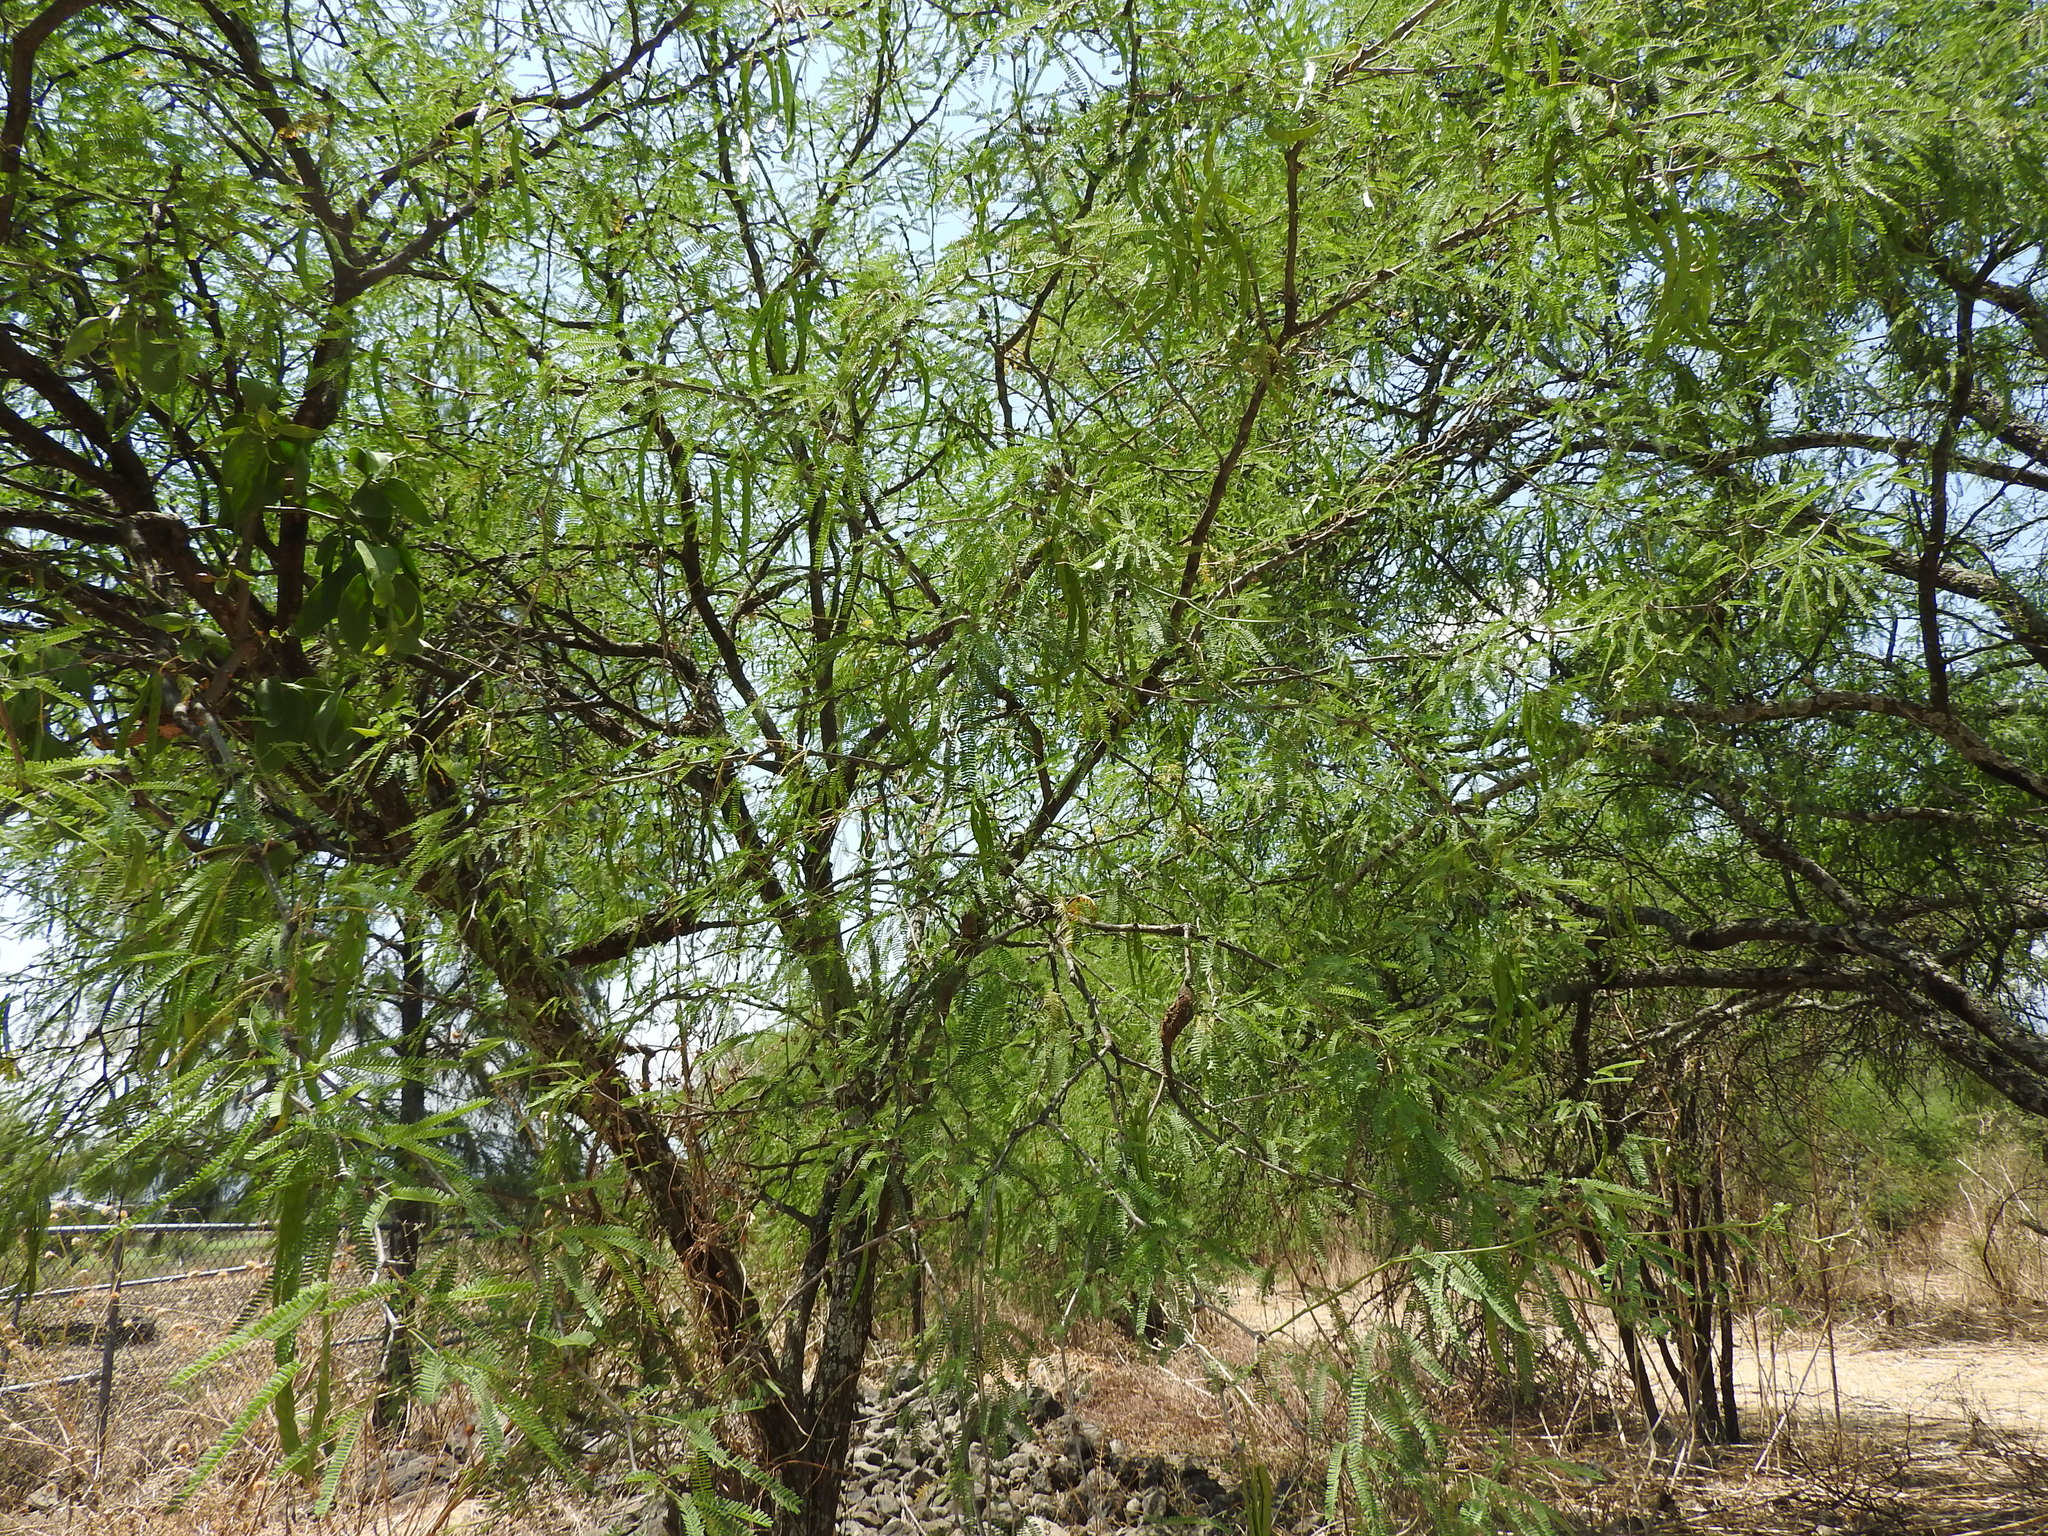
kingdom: Plantae
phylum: Tracheophyta
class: Magnoliopsida
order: Fabales
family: Fabaceae
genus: Prosopis
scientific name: Prosopis laevigata
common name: Smooth mesquite
